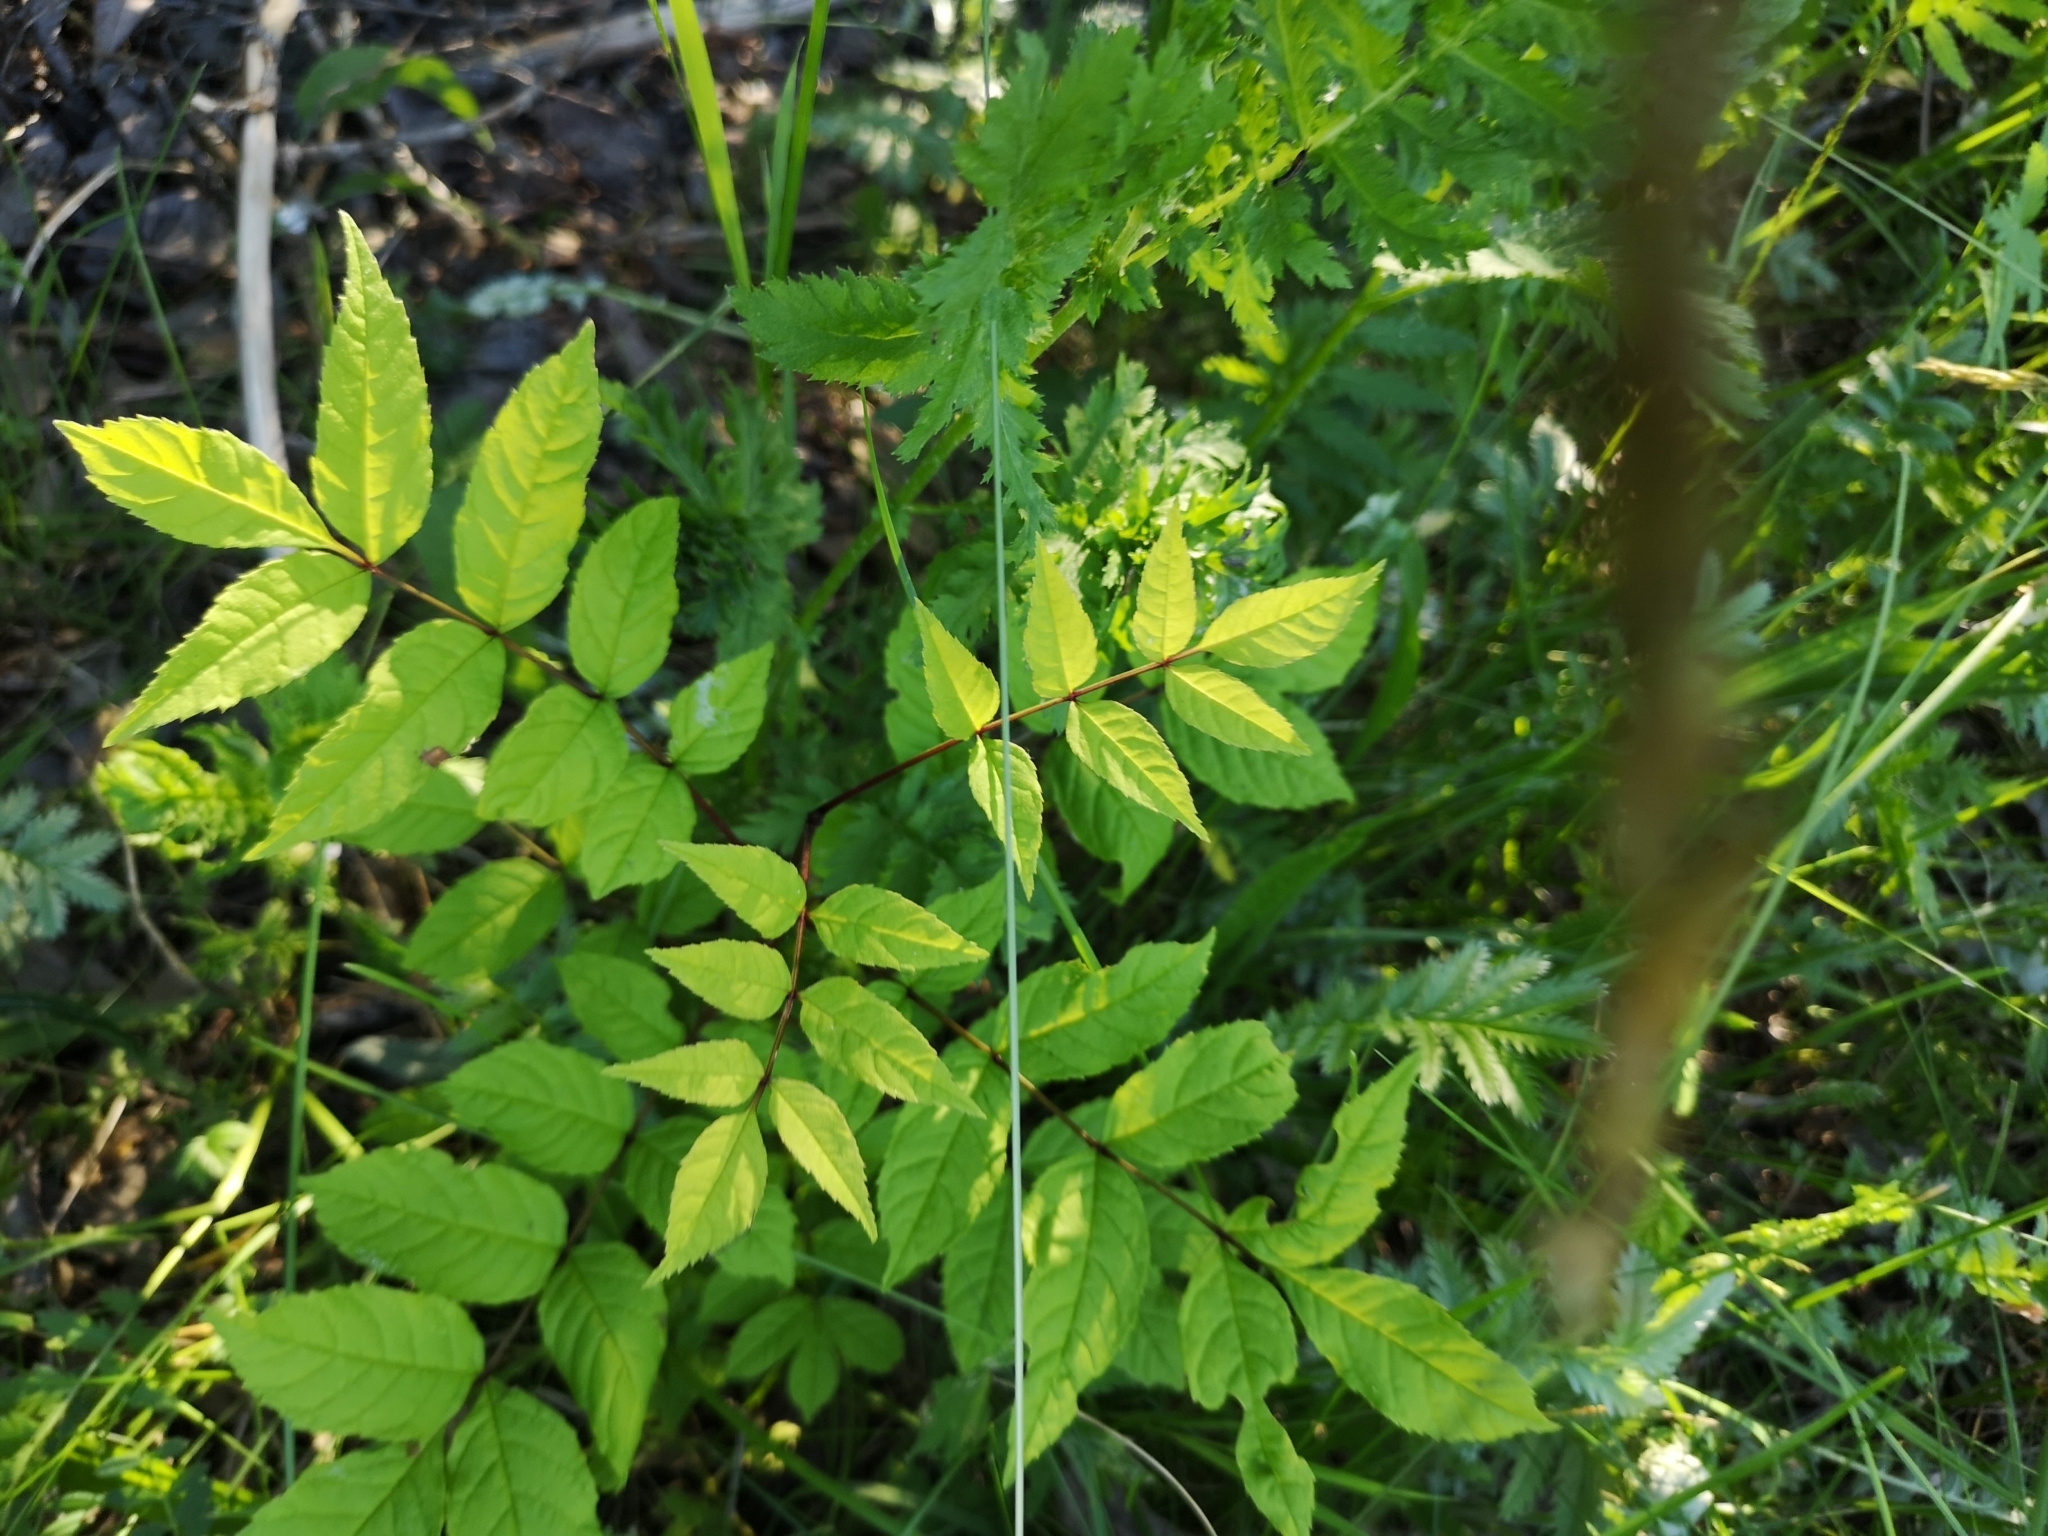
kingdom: Plantae
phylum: Tracheophyta
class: Magnoliopsida
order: Lamiales
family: Oleaceae
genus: Fraxinus
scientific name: Fraxinus excelsior
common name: European ash
